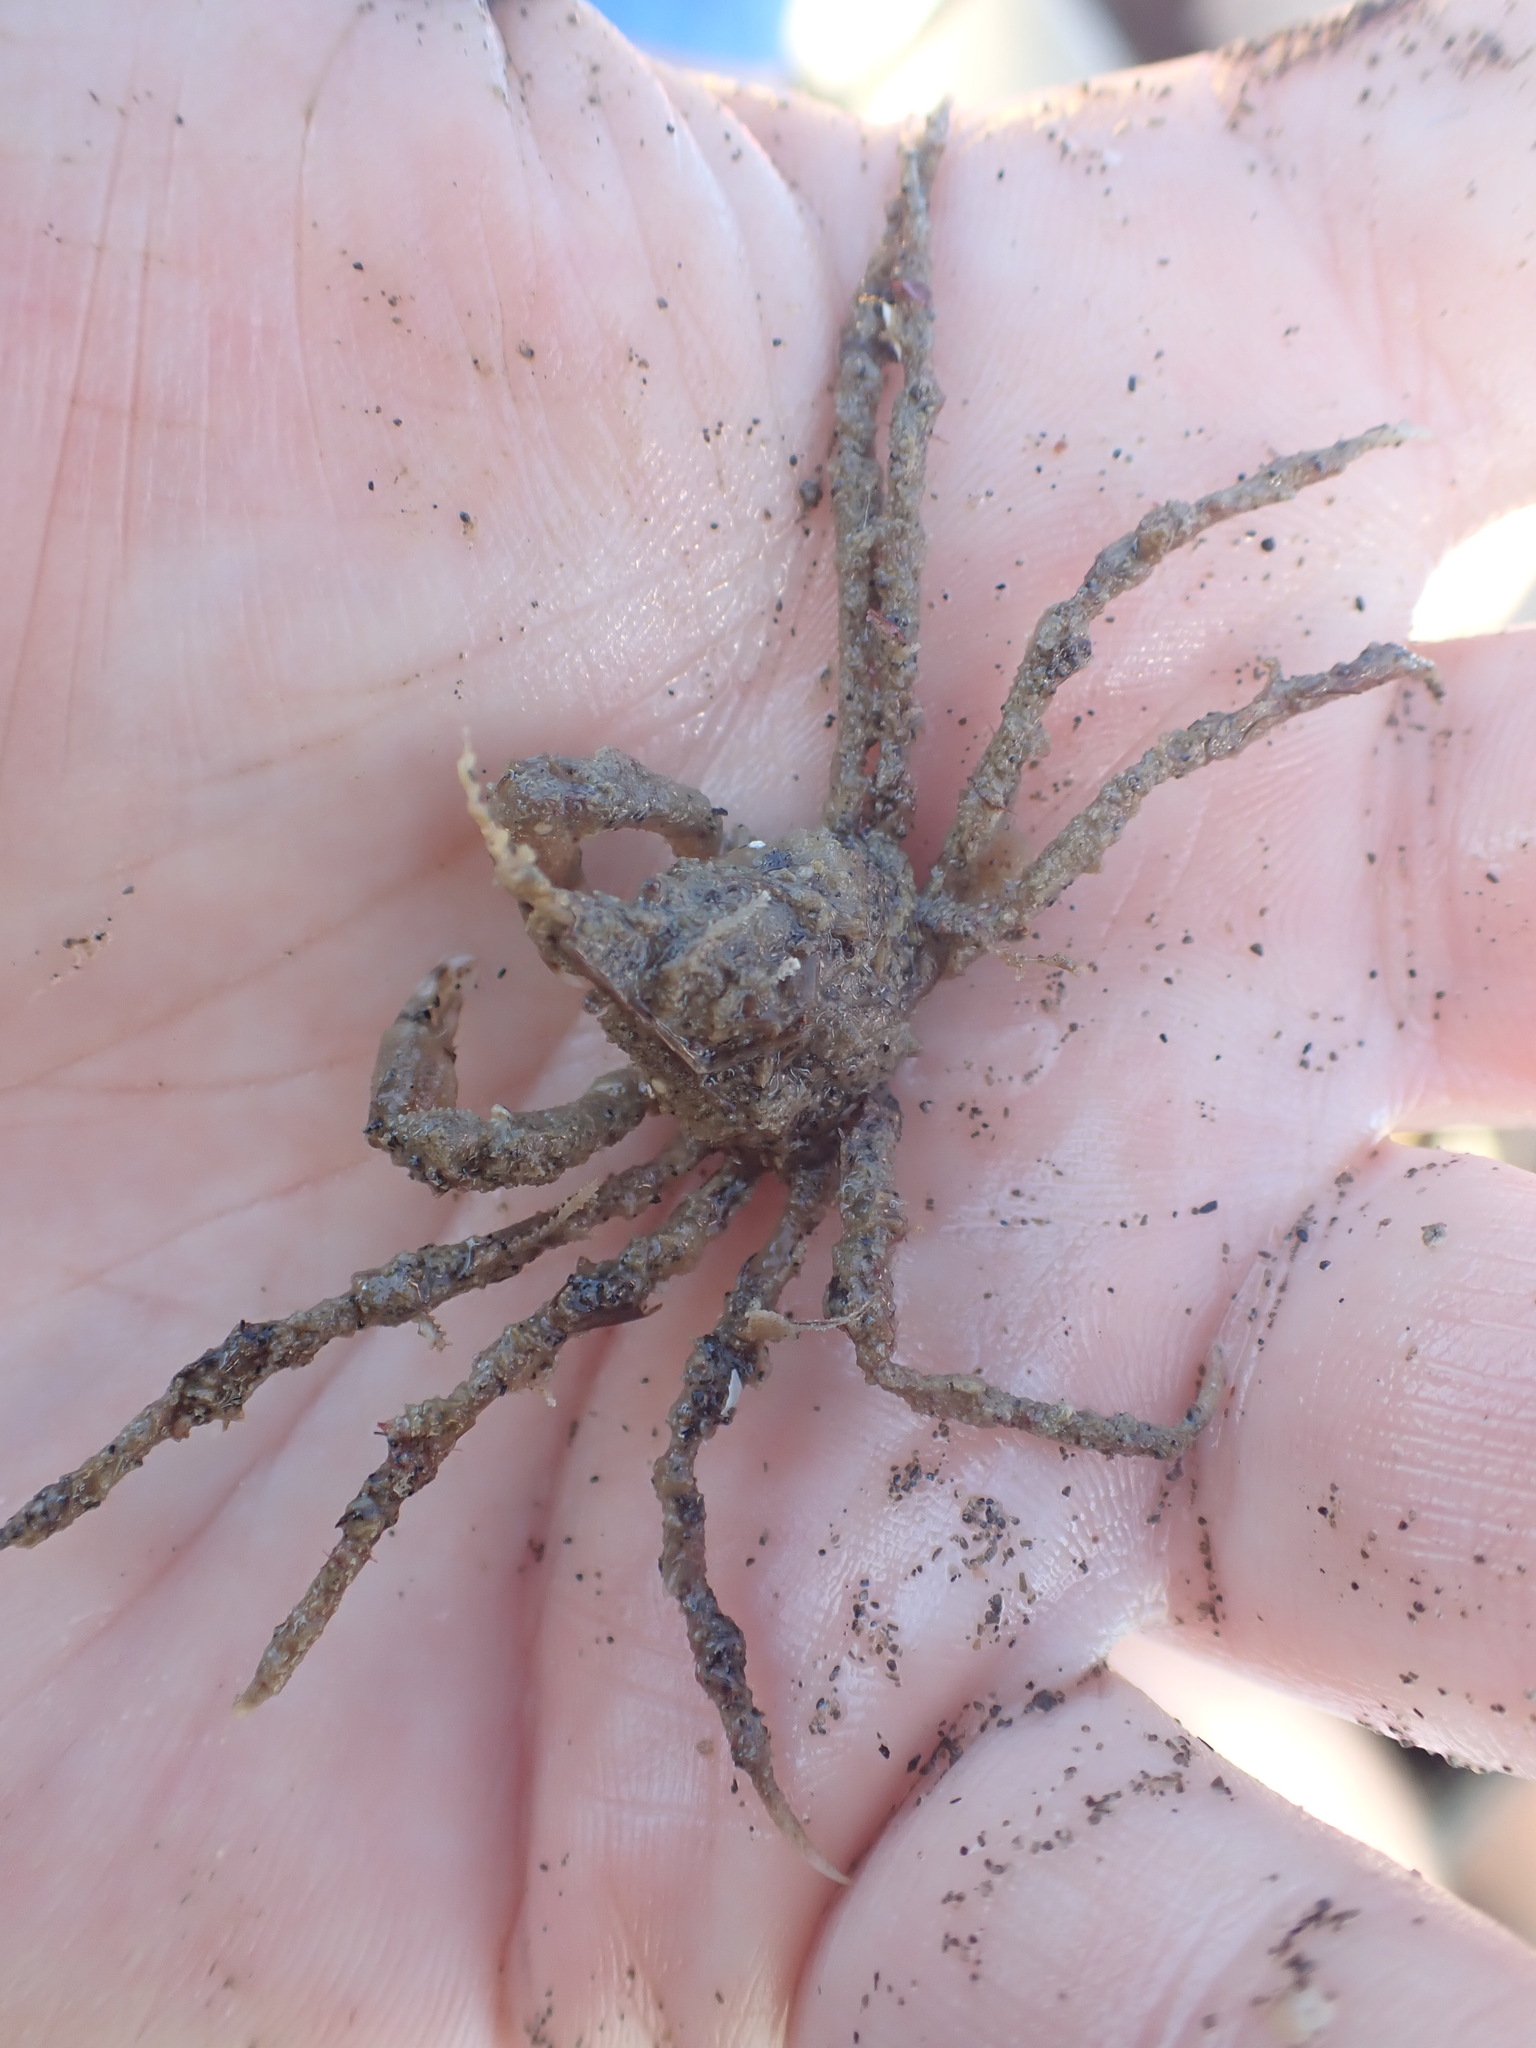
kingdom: Animalia
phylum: Arthropoda
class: Malacostraca
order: Decapoda
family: Inachoididae
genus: Pyromaia
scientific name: Pyromaia tuberculata
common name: Tuberculate pear crab
